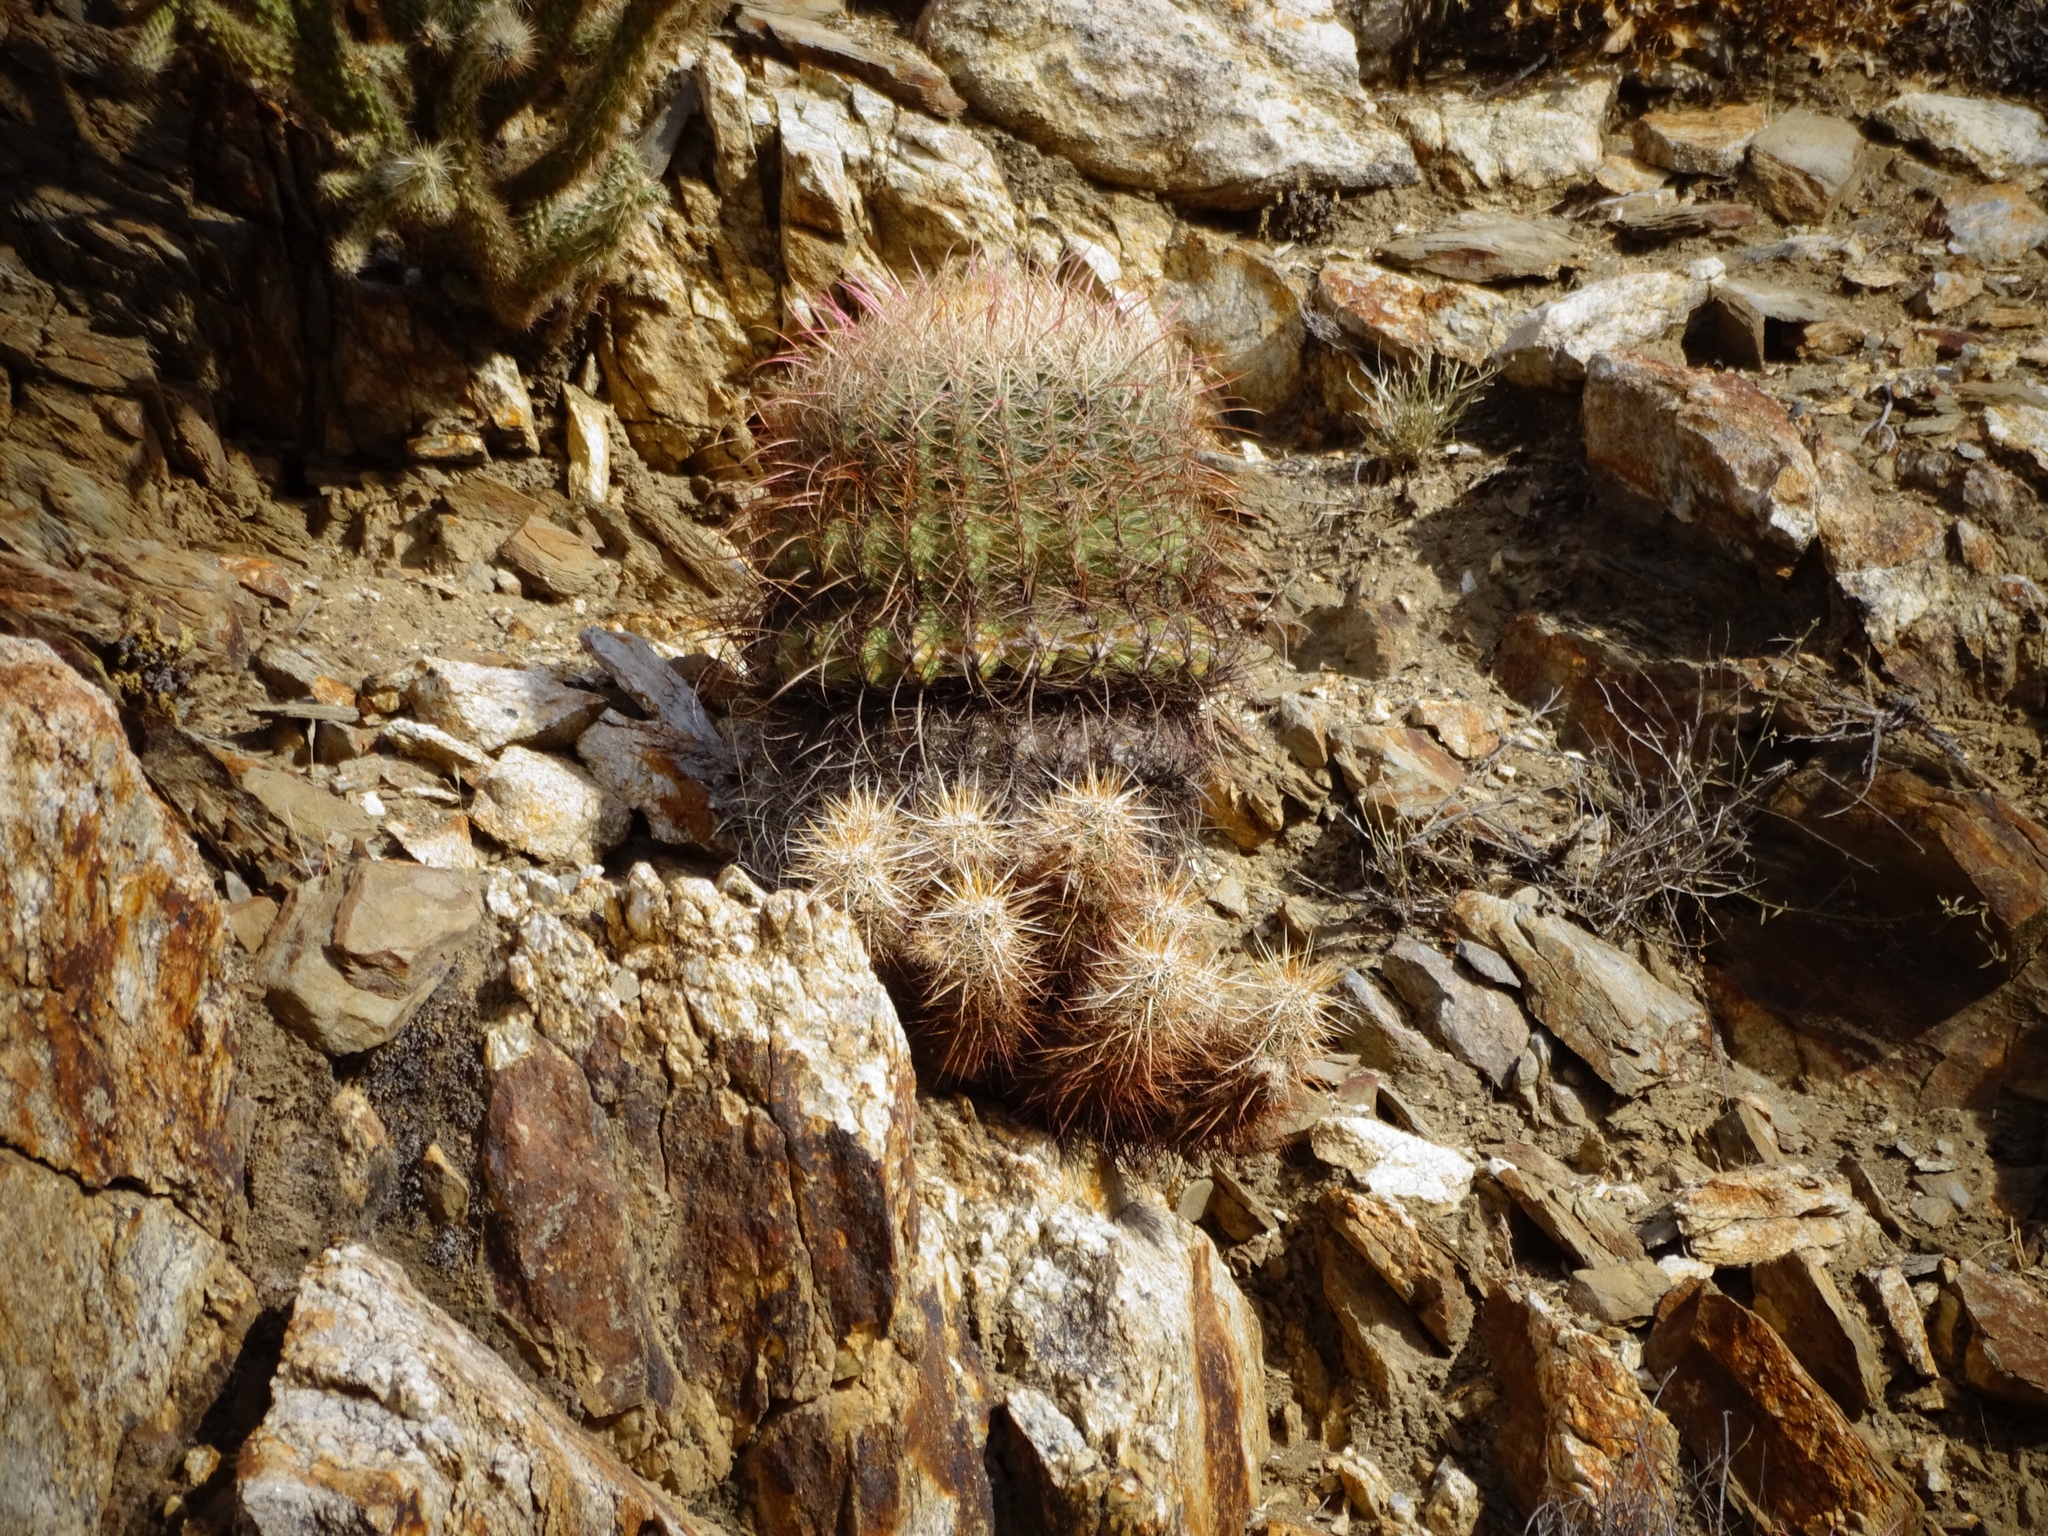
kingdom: Plantae
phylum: Tracheophyta
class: Magnoliopsida
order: Caryophyllales
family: Cactaceae
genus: Ferocactus
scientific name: Ferocactus cylindraceus
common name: California barrel cactus
